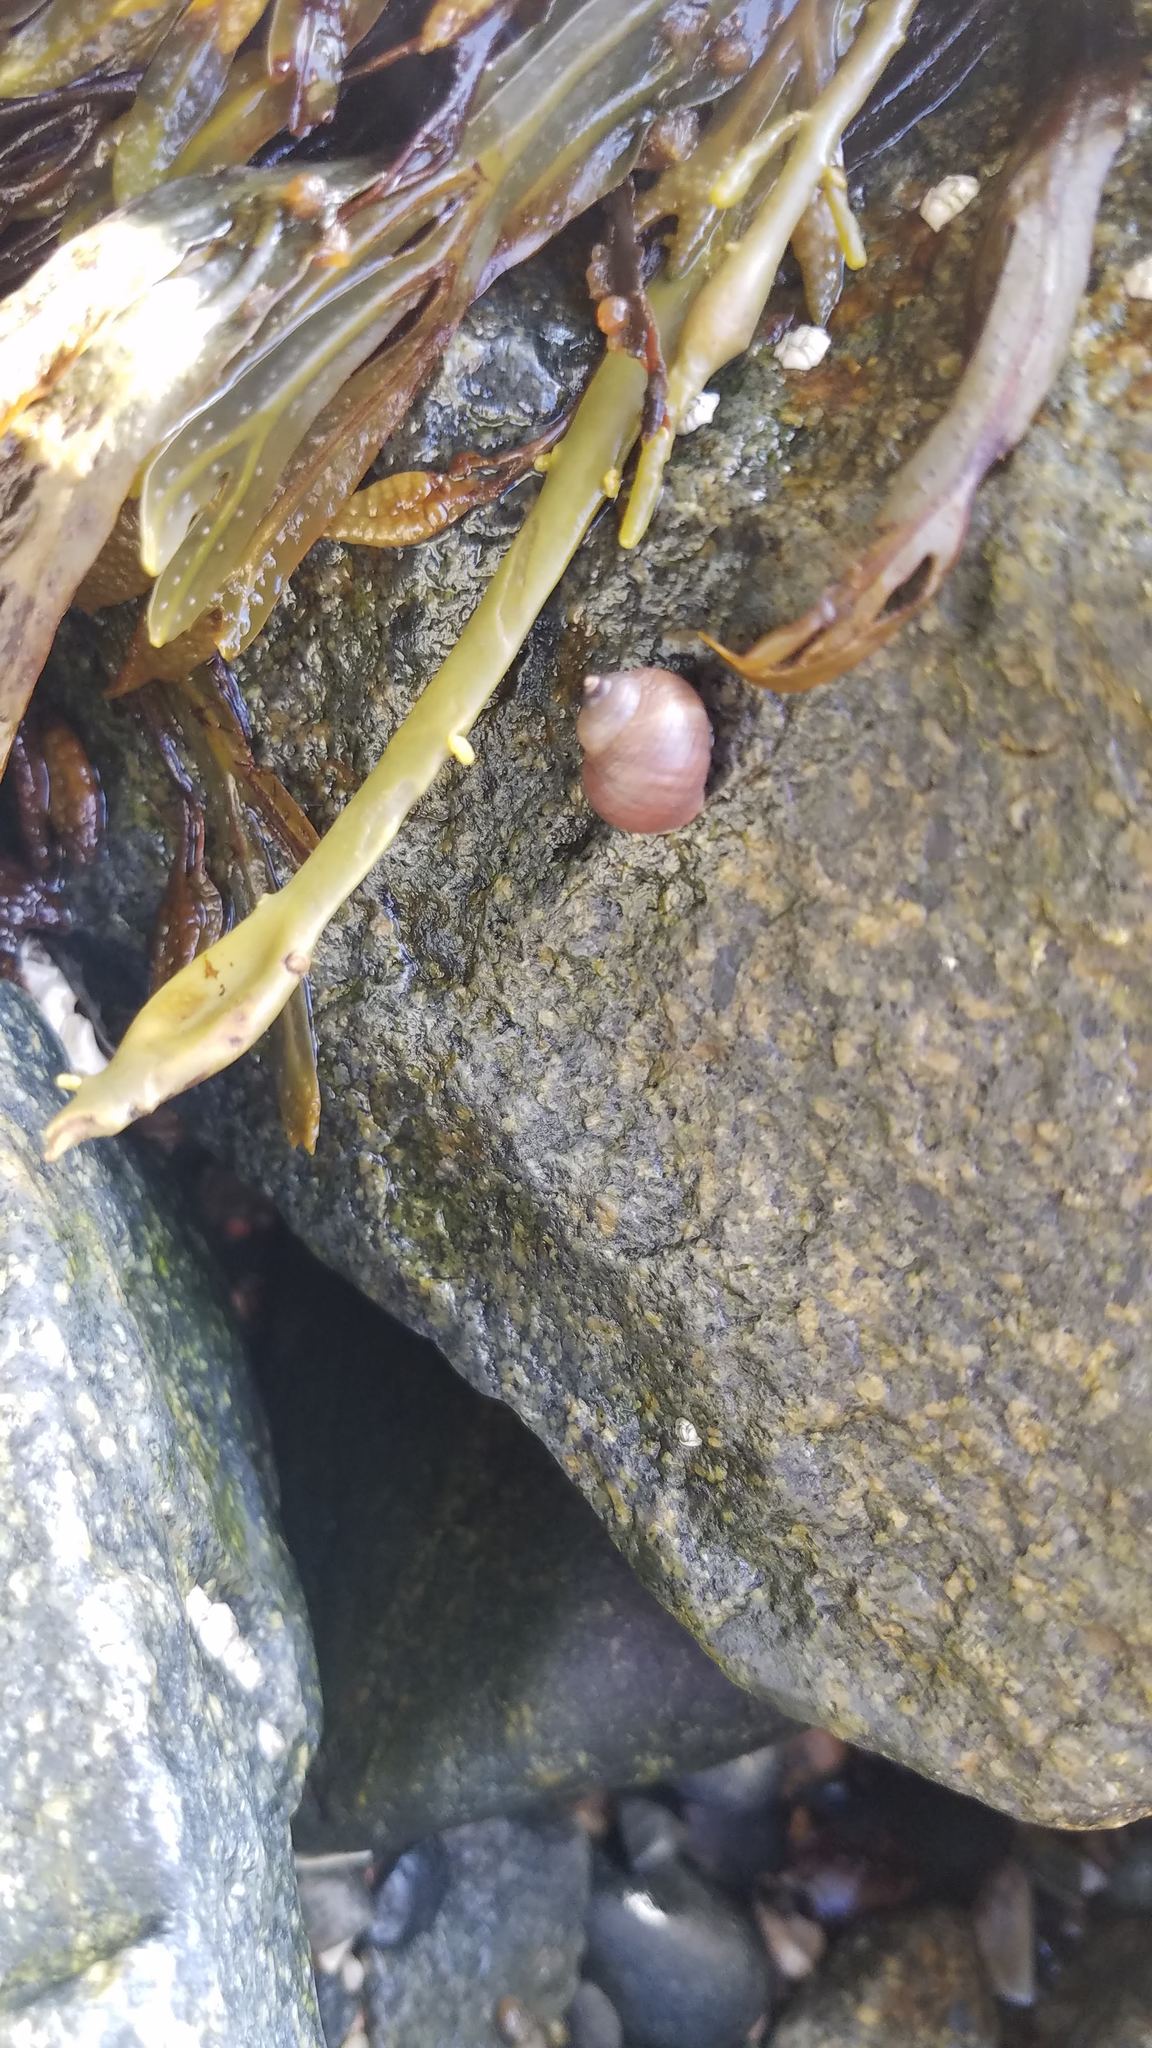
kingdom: Animalia
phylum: Mollusca
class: Gastropoda
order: Littorinimorpha
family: Littorinidae
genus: Littorina
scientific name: Littorina saxatilis
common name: Black-lined periwinkle
